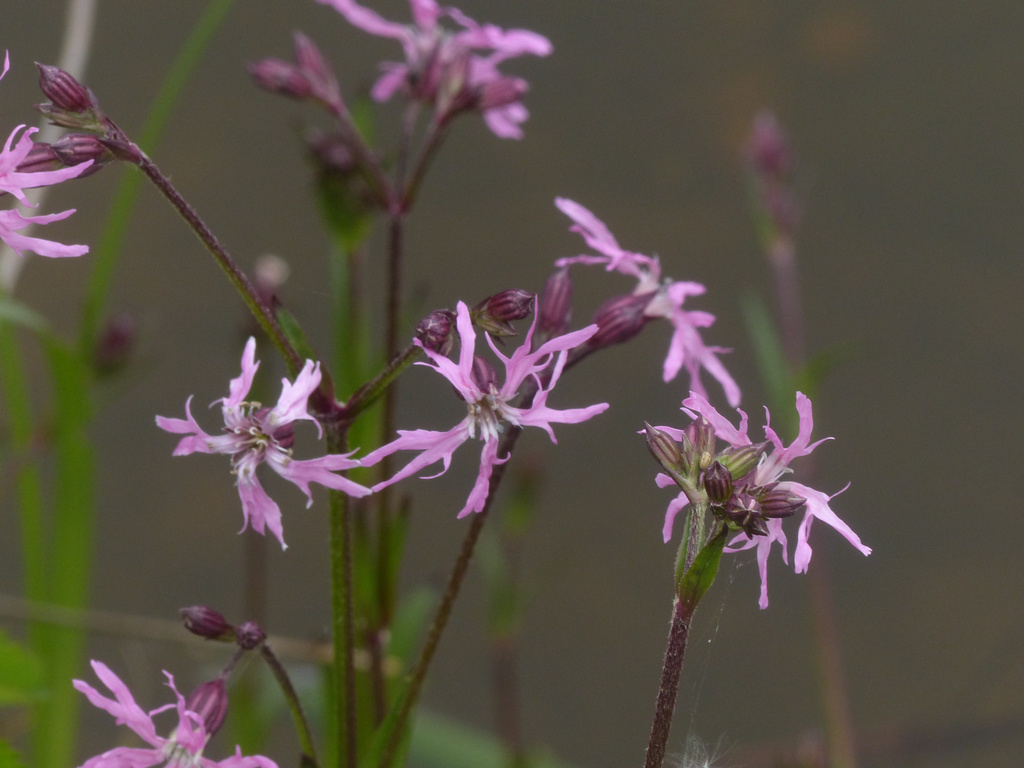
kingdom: Plantae
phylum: Tracheophyta
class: Magnoliopsida
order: Caryophyllales
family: Caryophyllaceae
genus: Silene
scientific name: Silene flos-cuculi
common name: Ragged-robin
